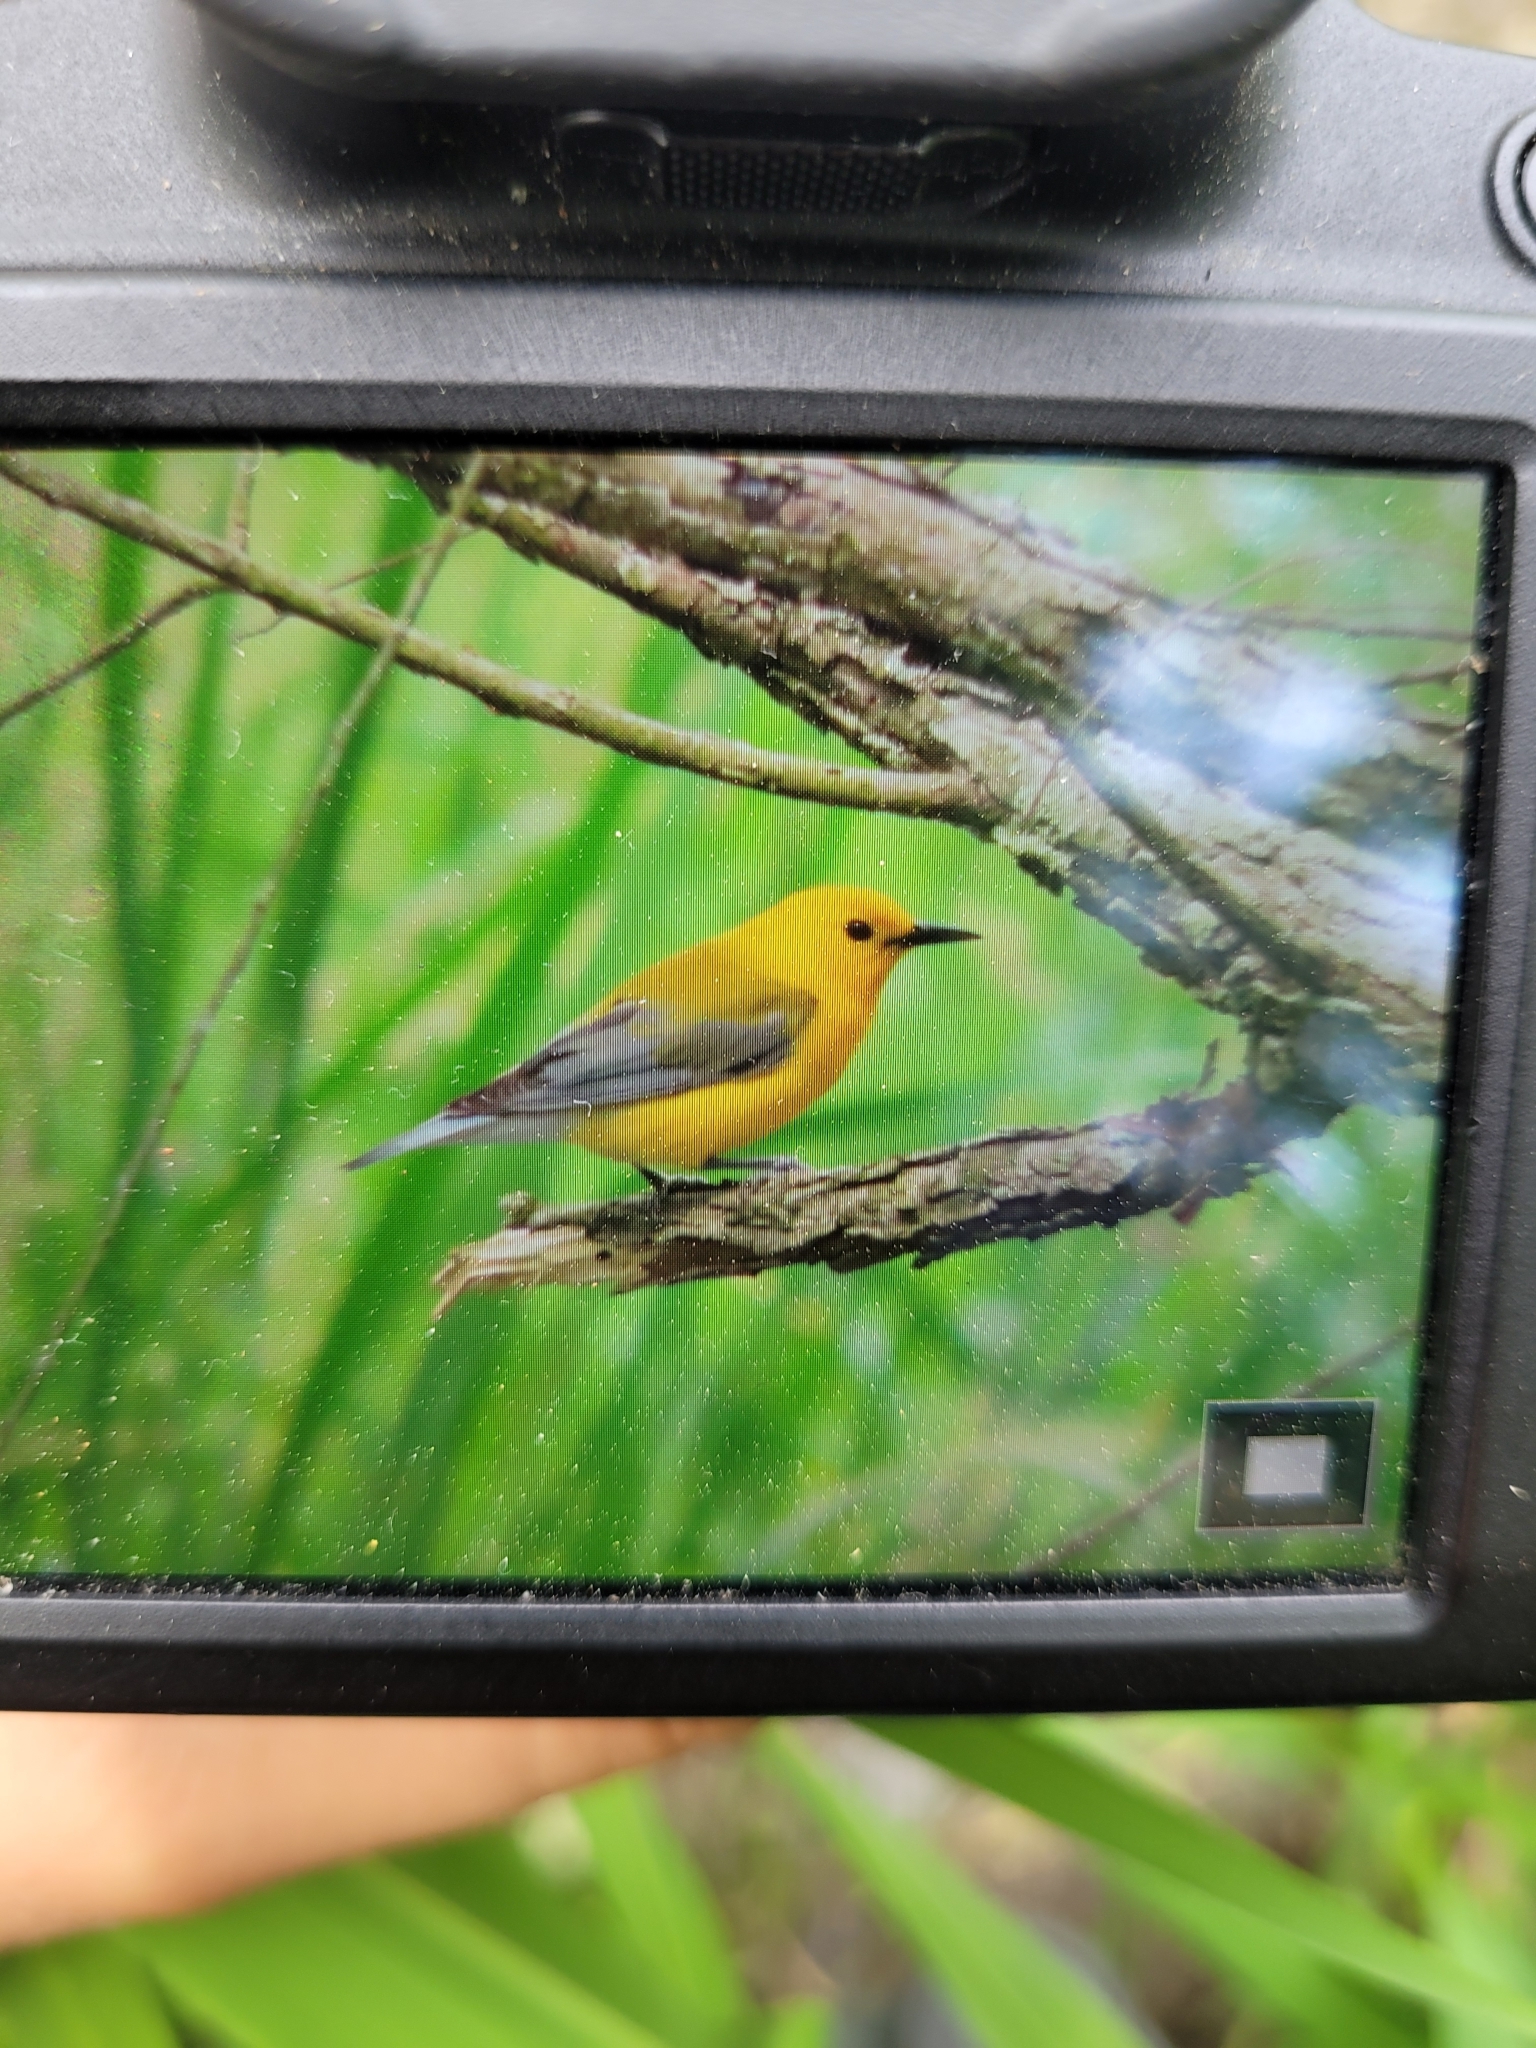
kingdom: Animalia
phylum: Chordata
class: Aves
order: Passeriformes
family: Parulidae
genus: Protonotaria
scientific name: Protonotaria citrea
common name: Prothonotary warbler
